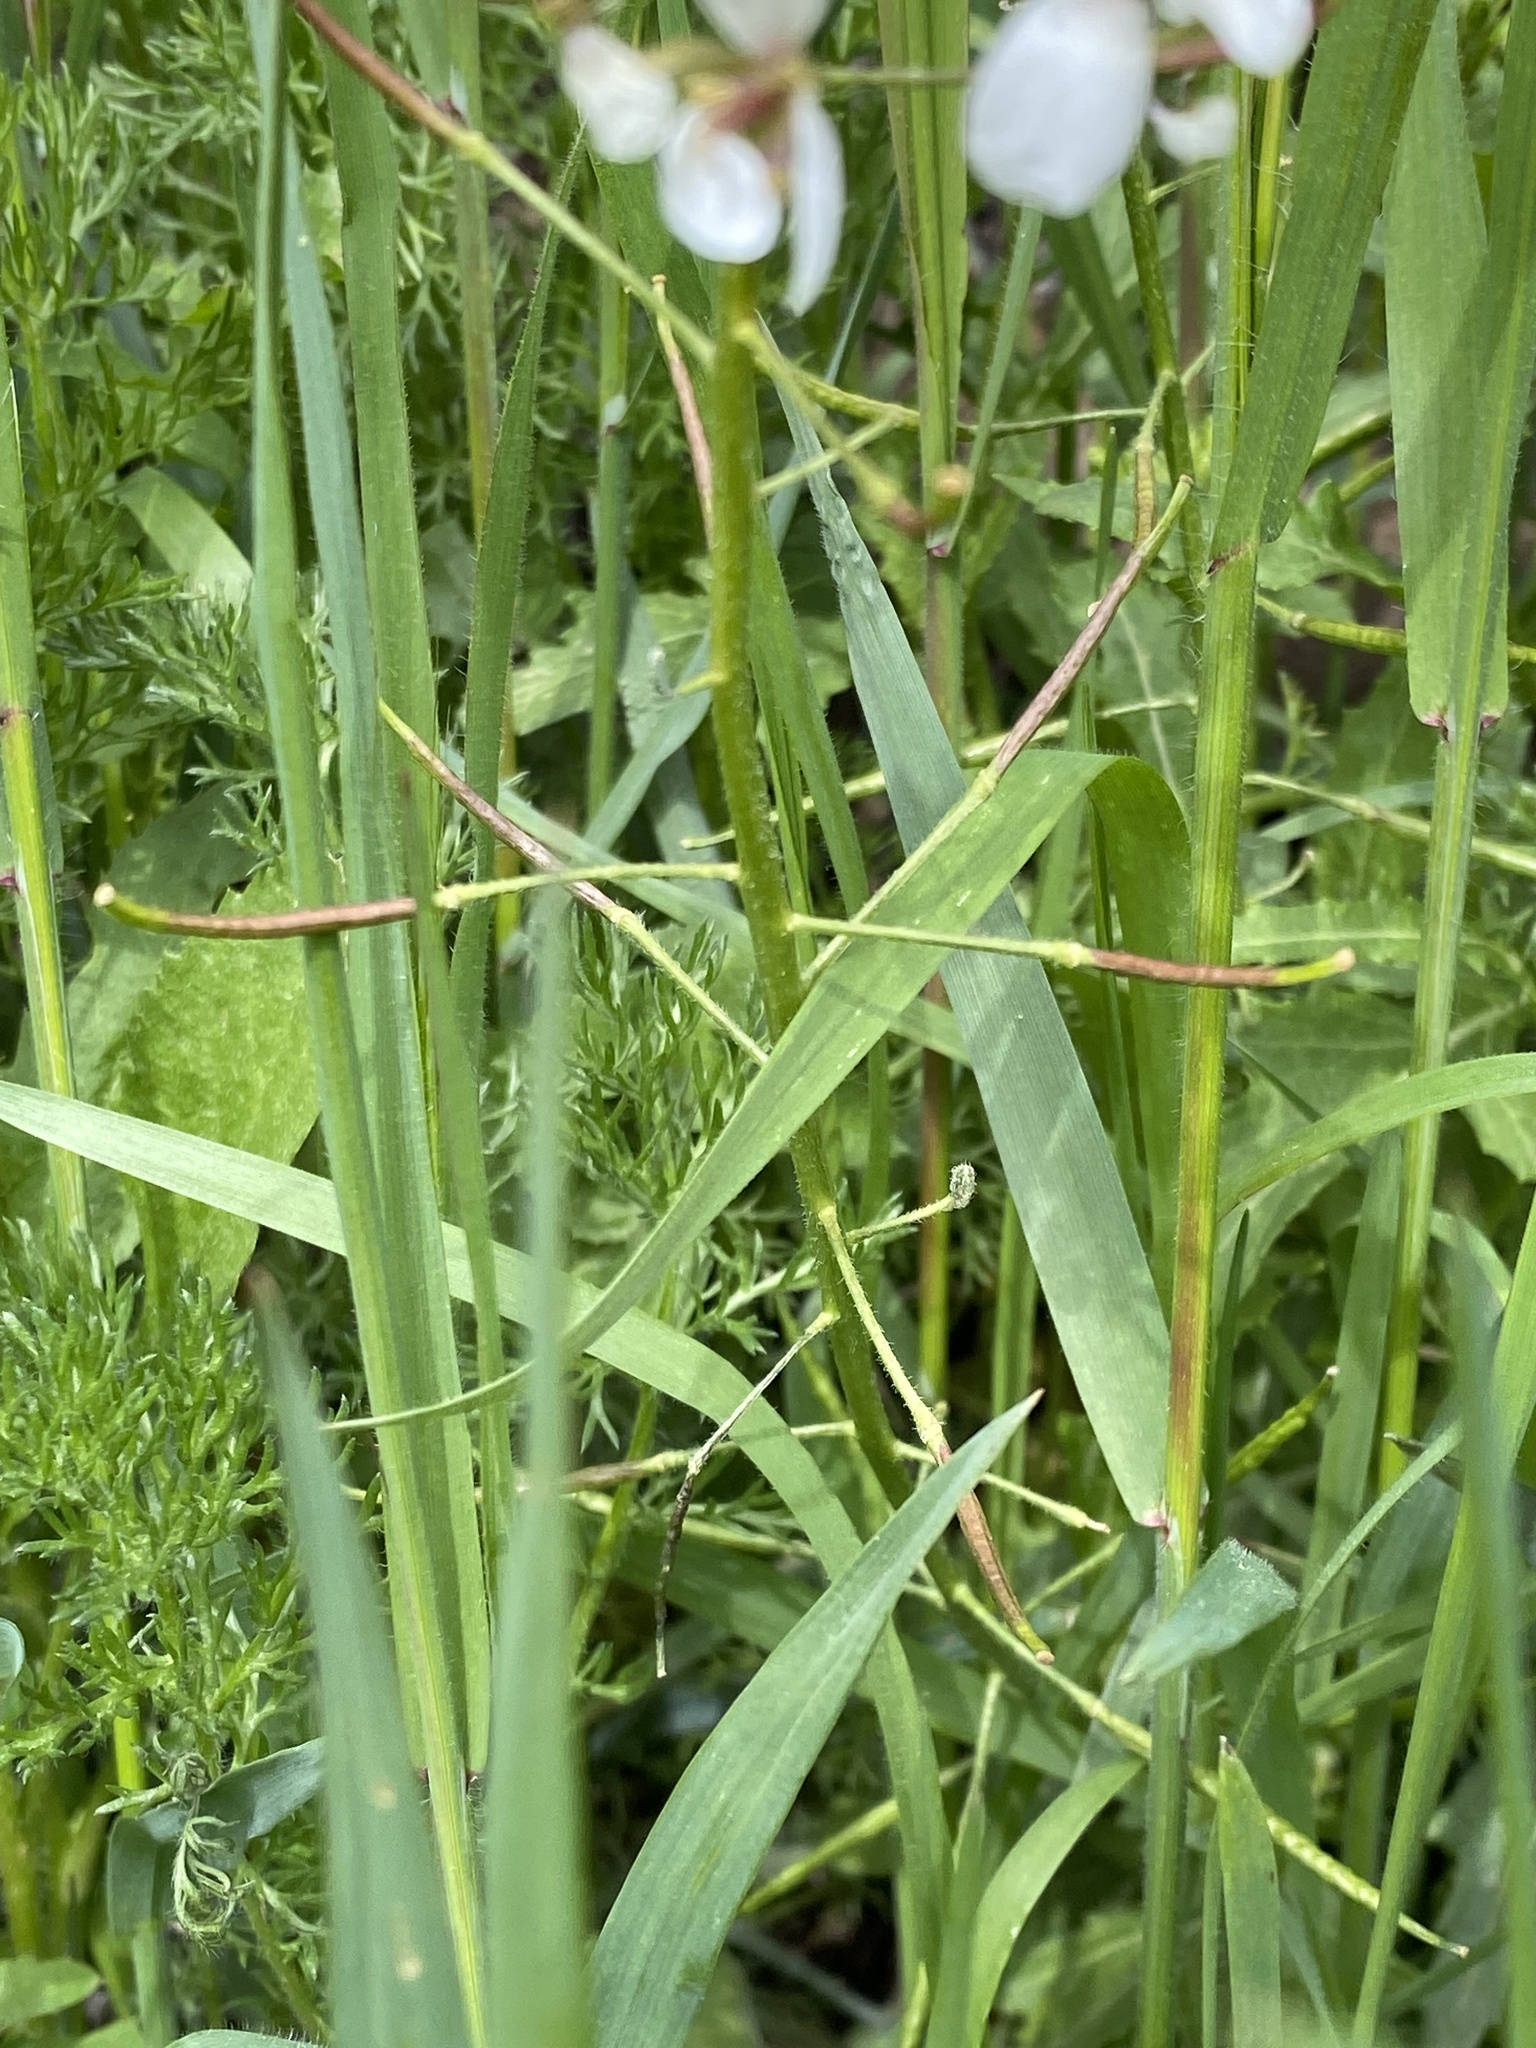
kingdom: Plantae
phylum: Tracheophyta
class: Magnoliopsida
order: Brassicales
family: Brassicaceae
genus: Diplotaxis
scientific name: Diplotaxis erucoides
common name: White rocket
